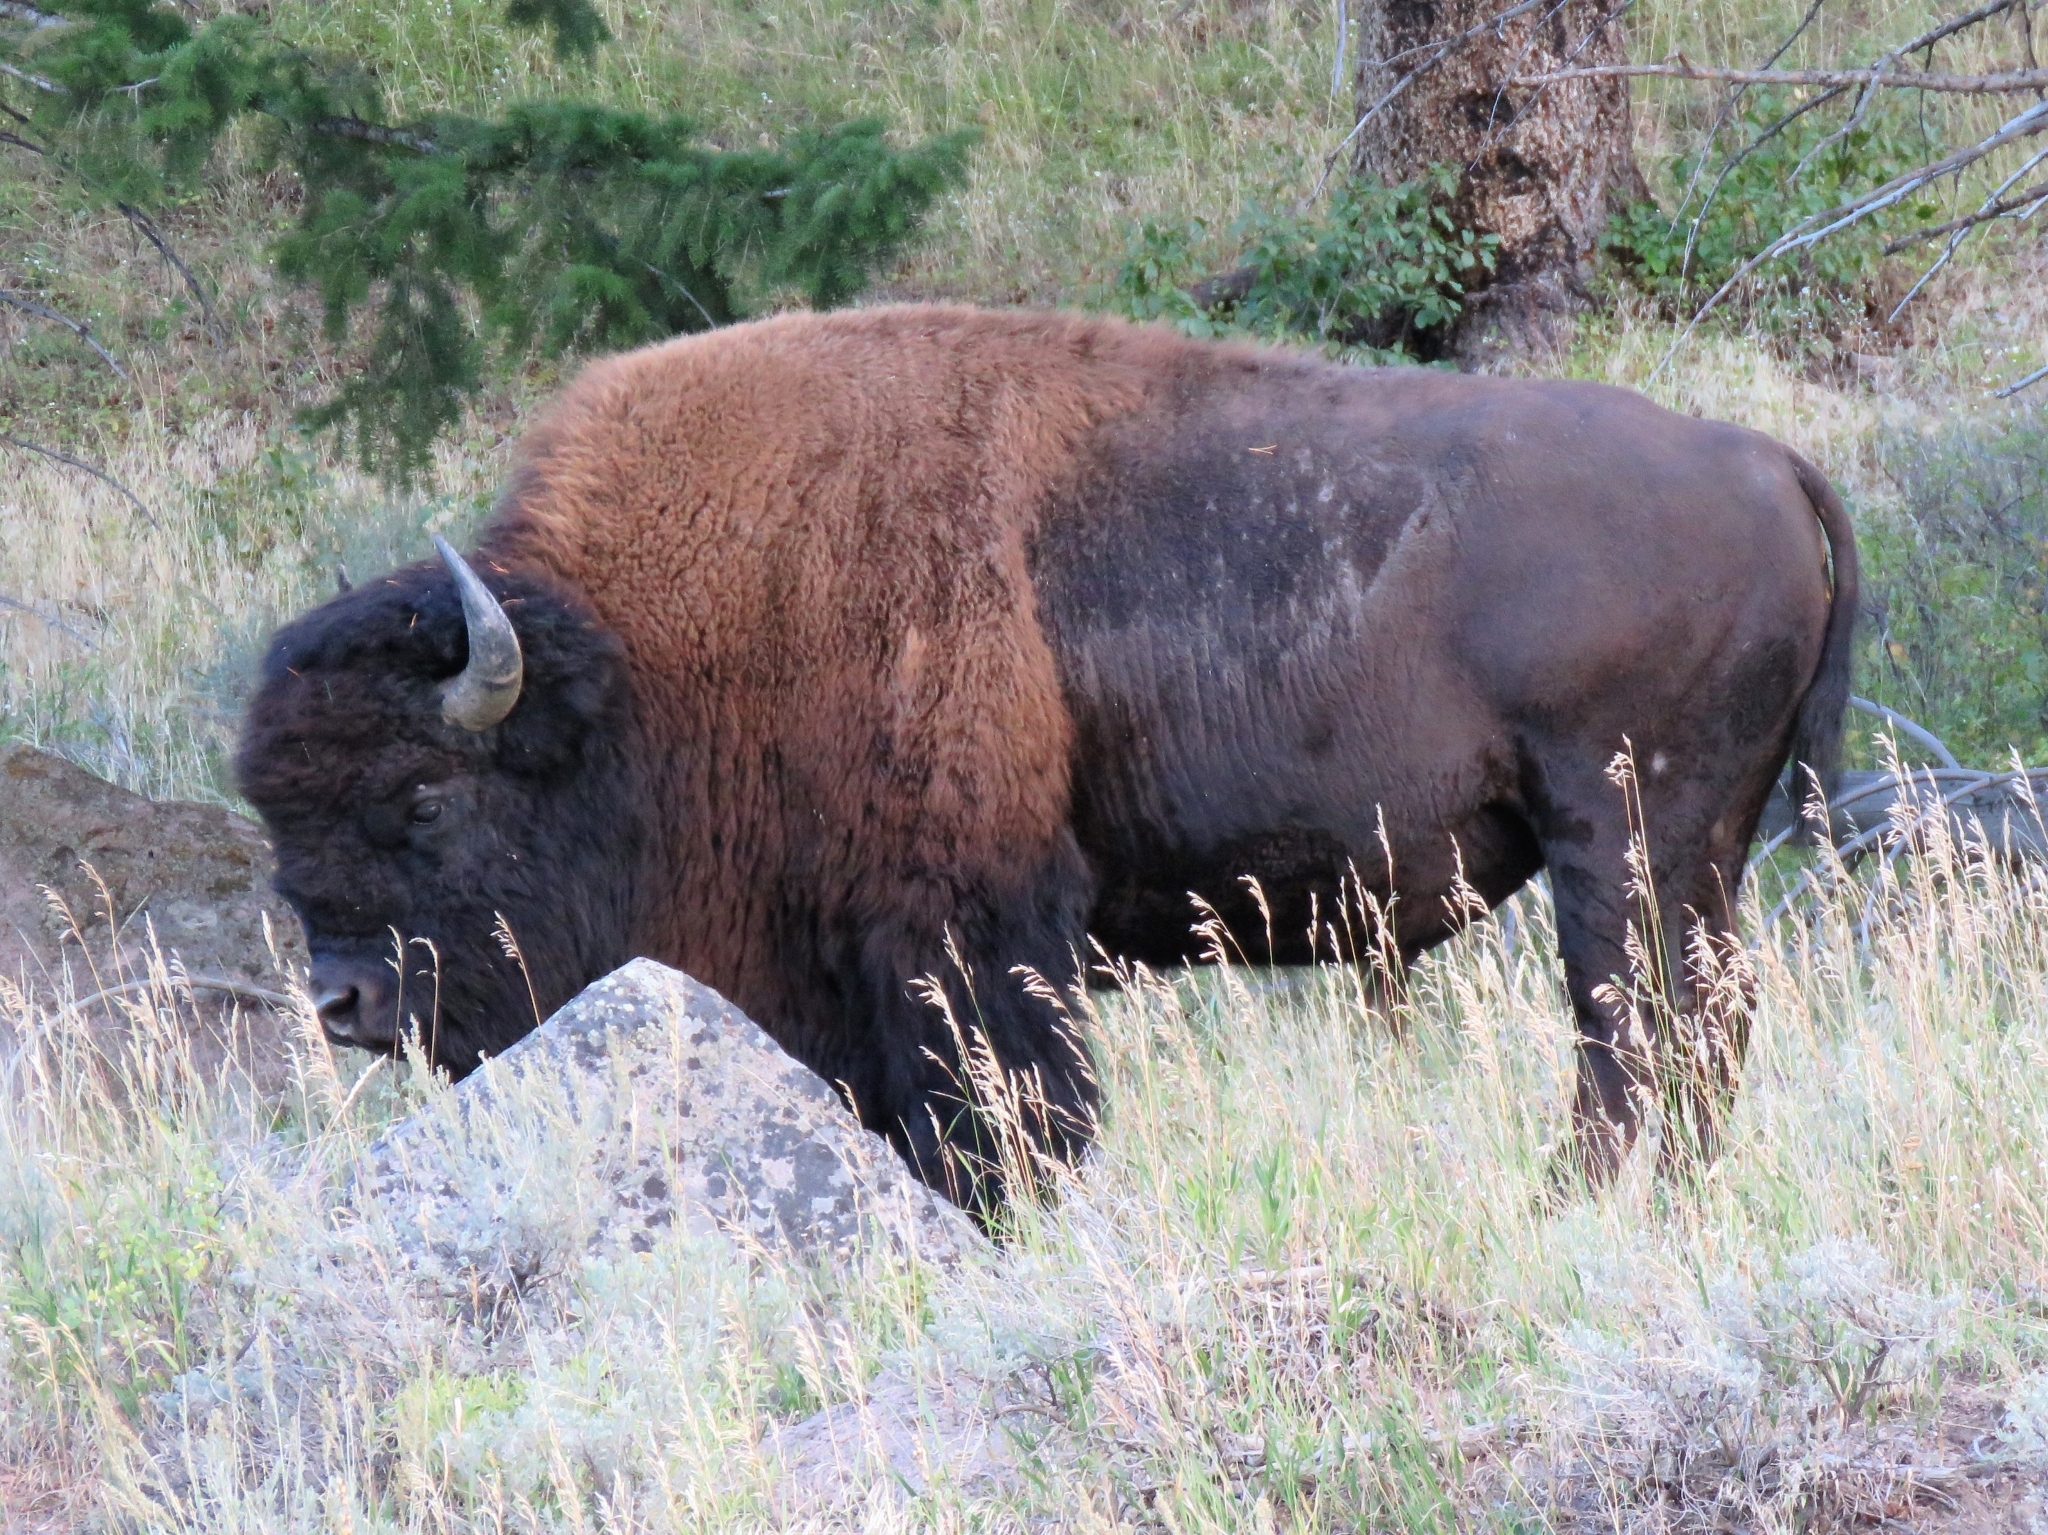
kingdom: Animalia
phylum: Chordata
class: Mammalia
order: Artiodactyla
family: Bovidae
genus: Bison
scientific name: Bison bison
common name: American bison
